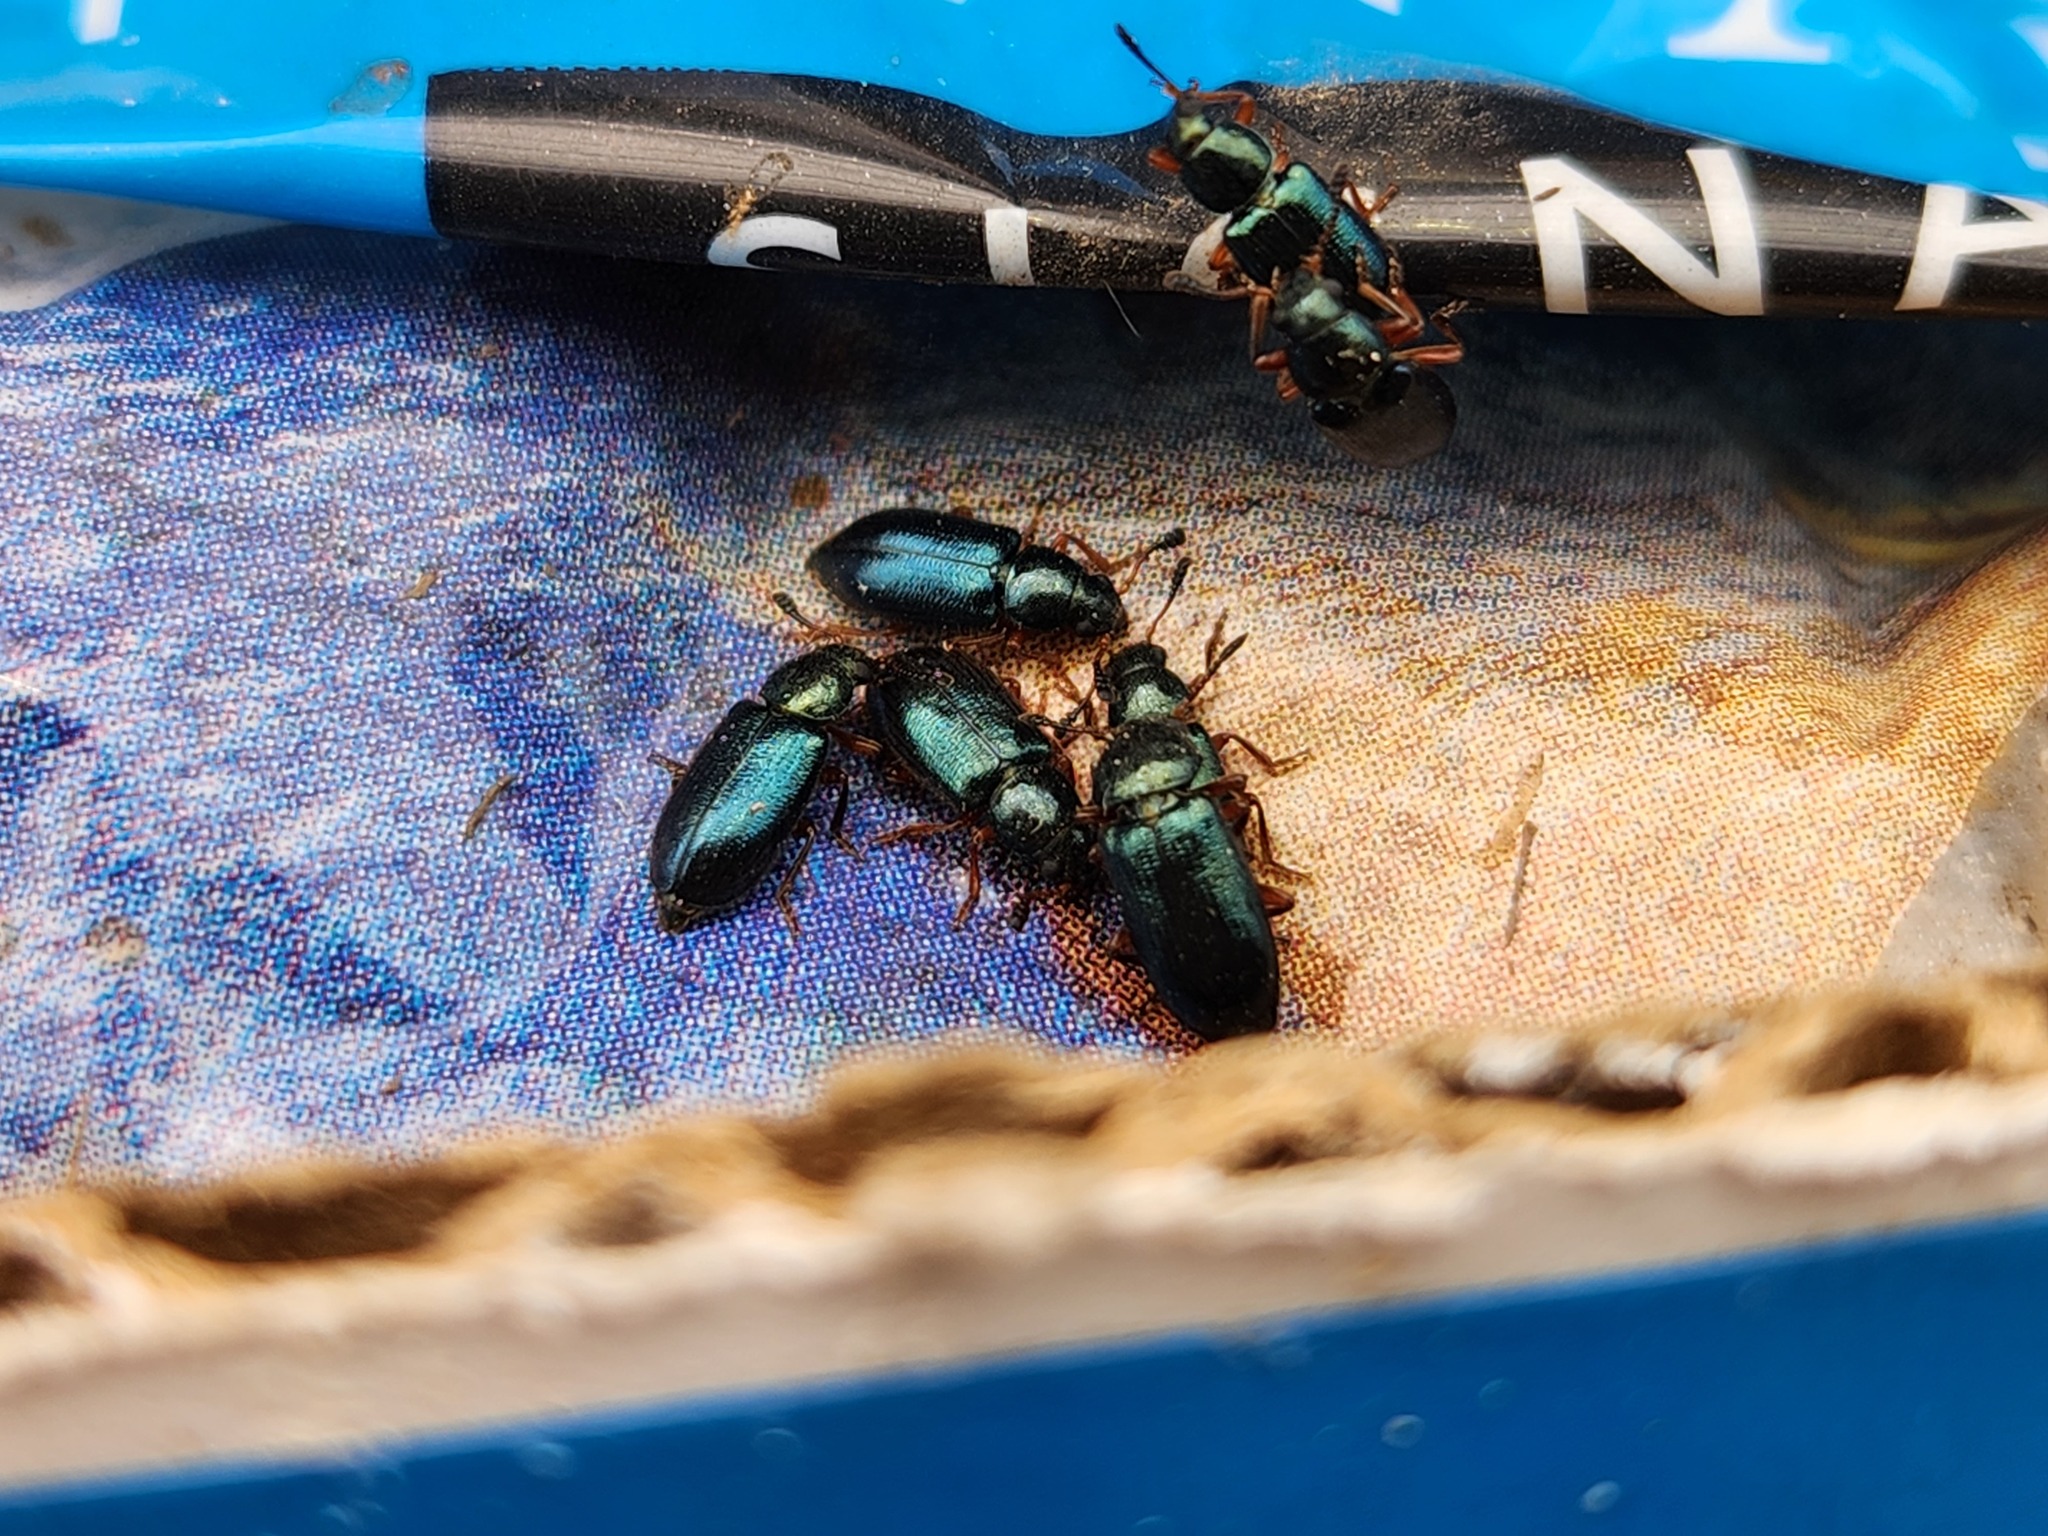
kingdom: Animalia
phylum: Arthropoda
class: Insecta
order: Coleoptera
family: Cleridae
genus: Necrobia
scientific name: Necrobia rufipes
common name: Red-legged ham beetle
